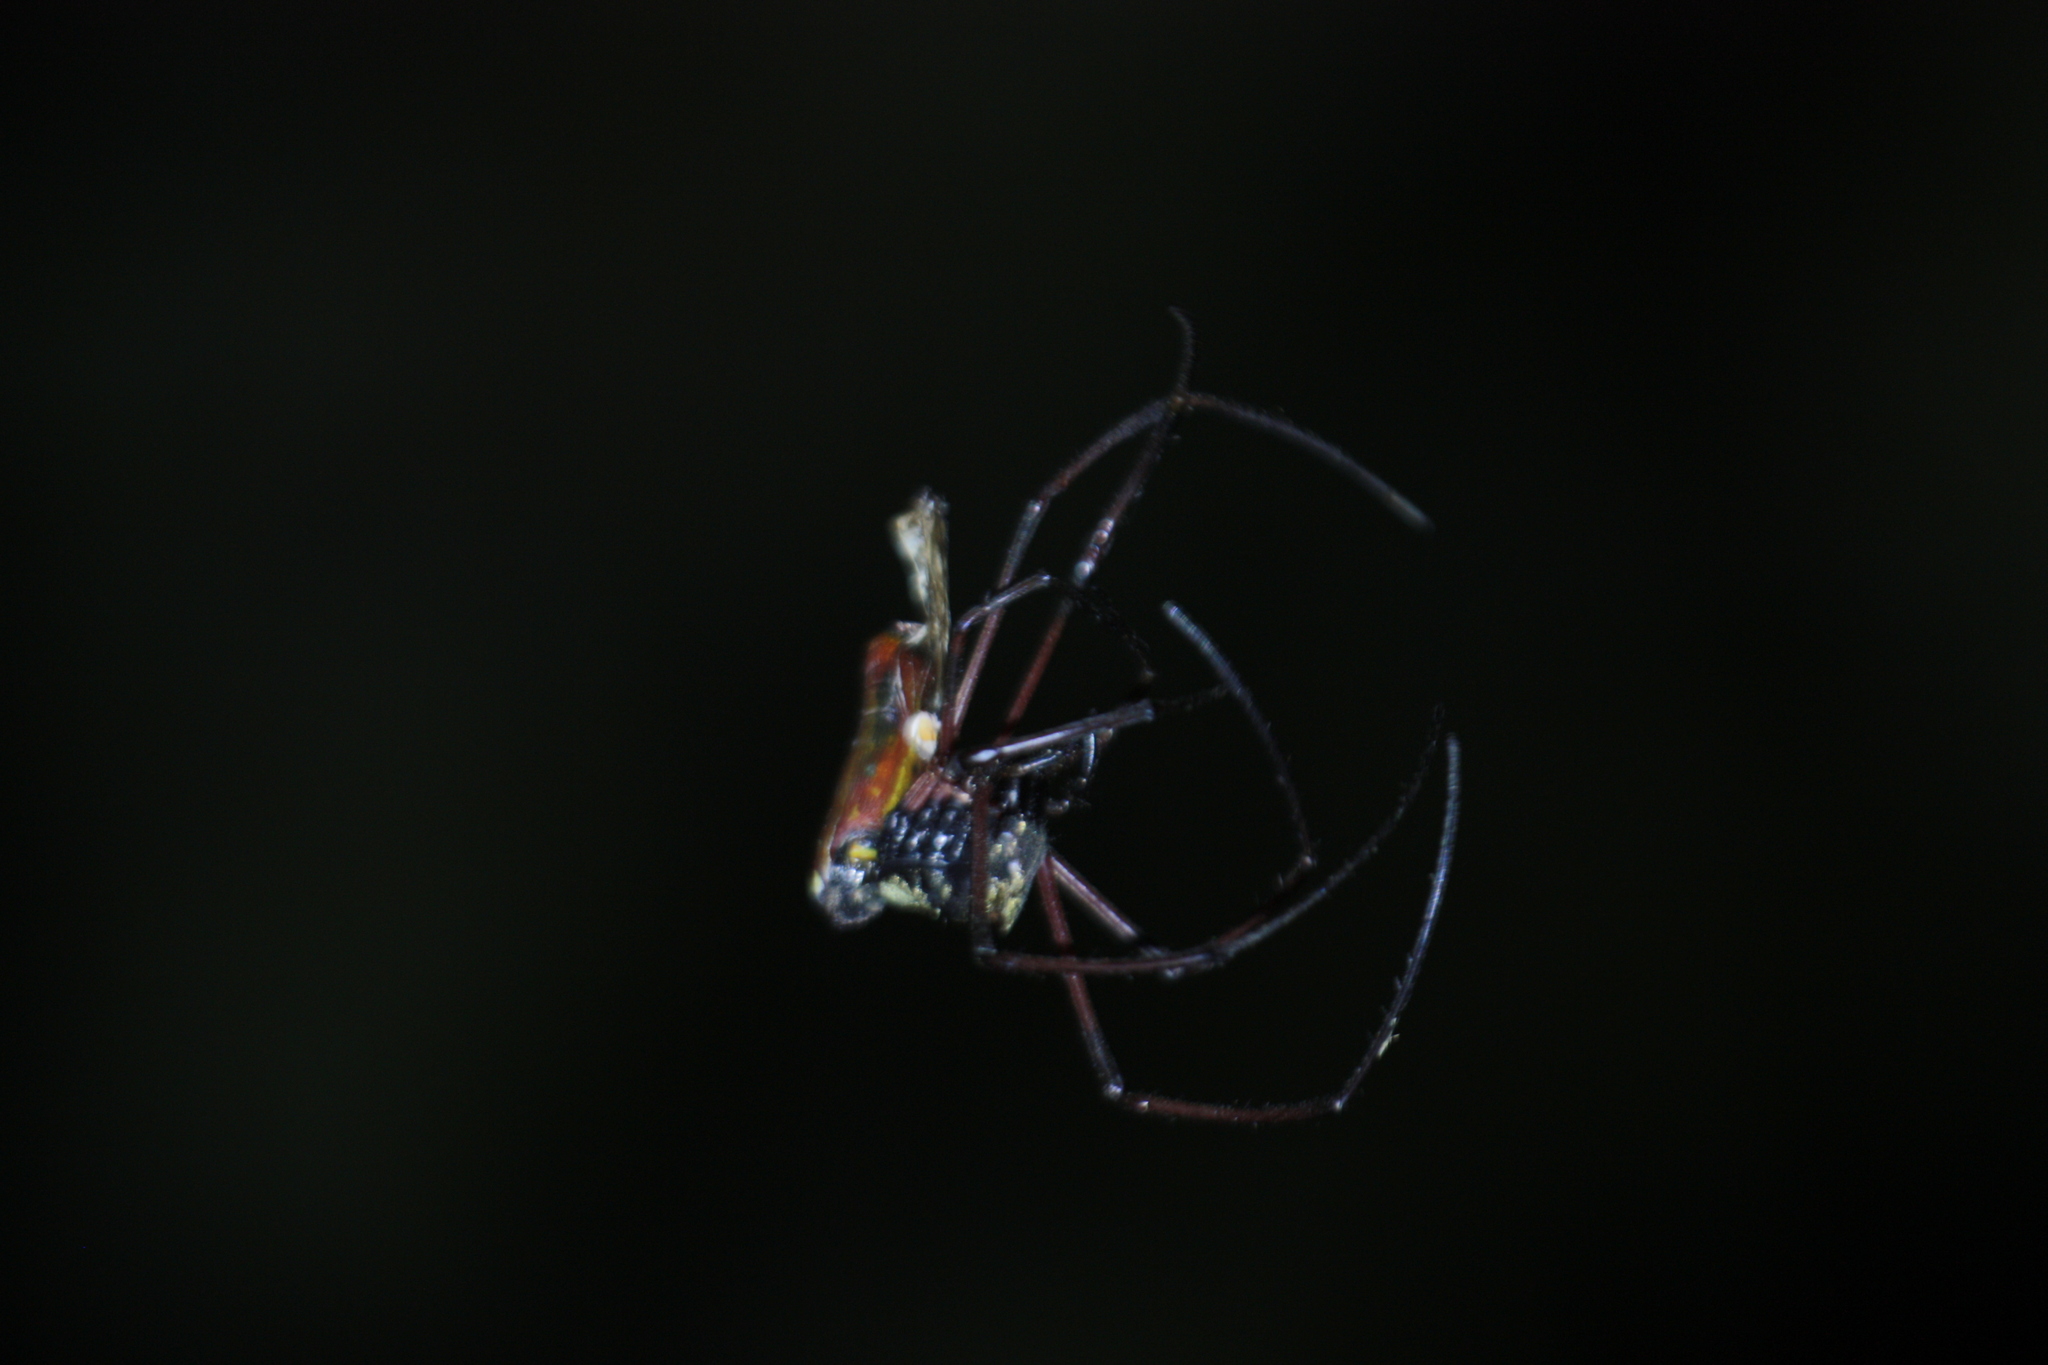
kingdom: Animalia
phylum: Arthropoda
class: Arachnida
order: Araneae
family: Araneidae
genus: Nephila
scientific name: Nephila pilipes
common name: Giant golden orb weaver
